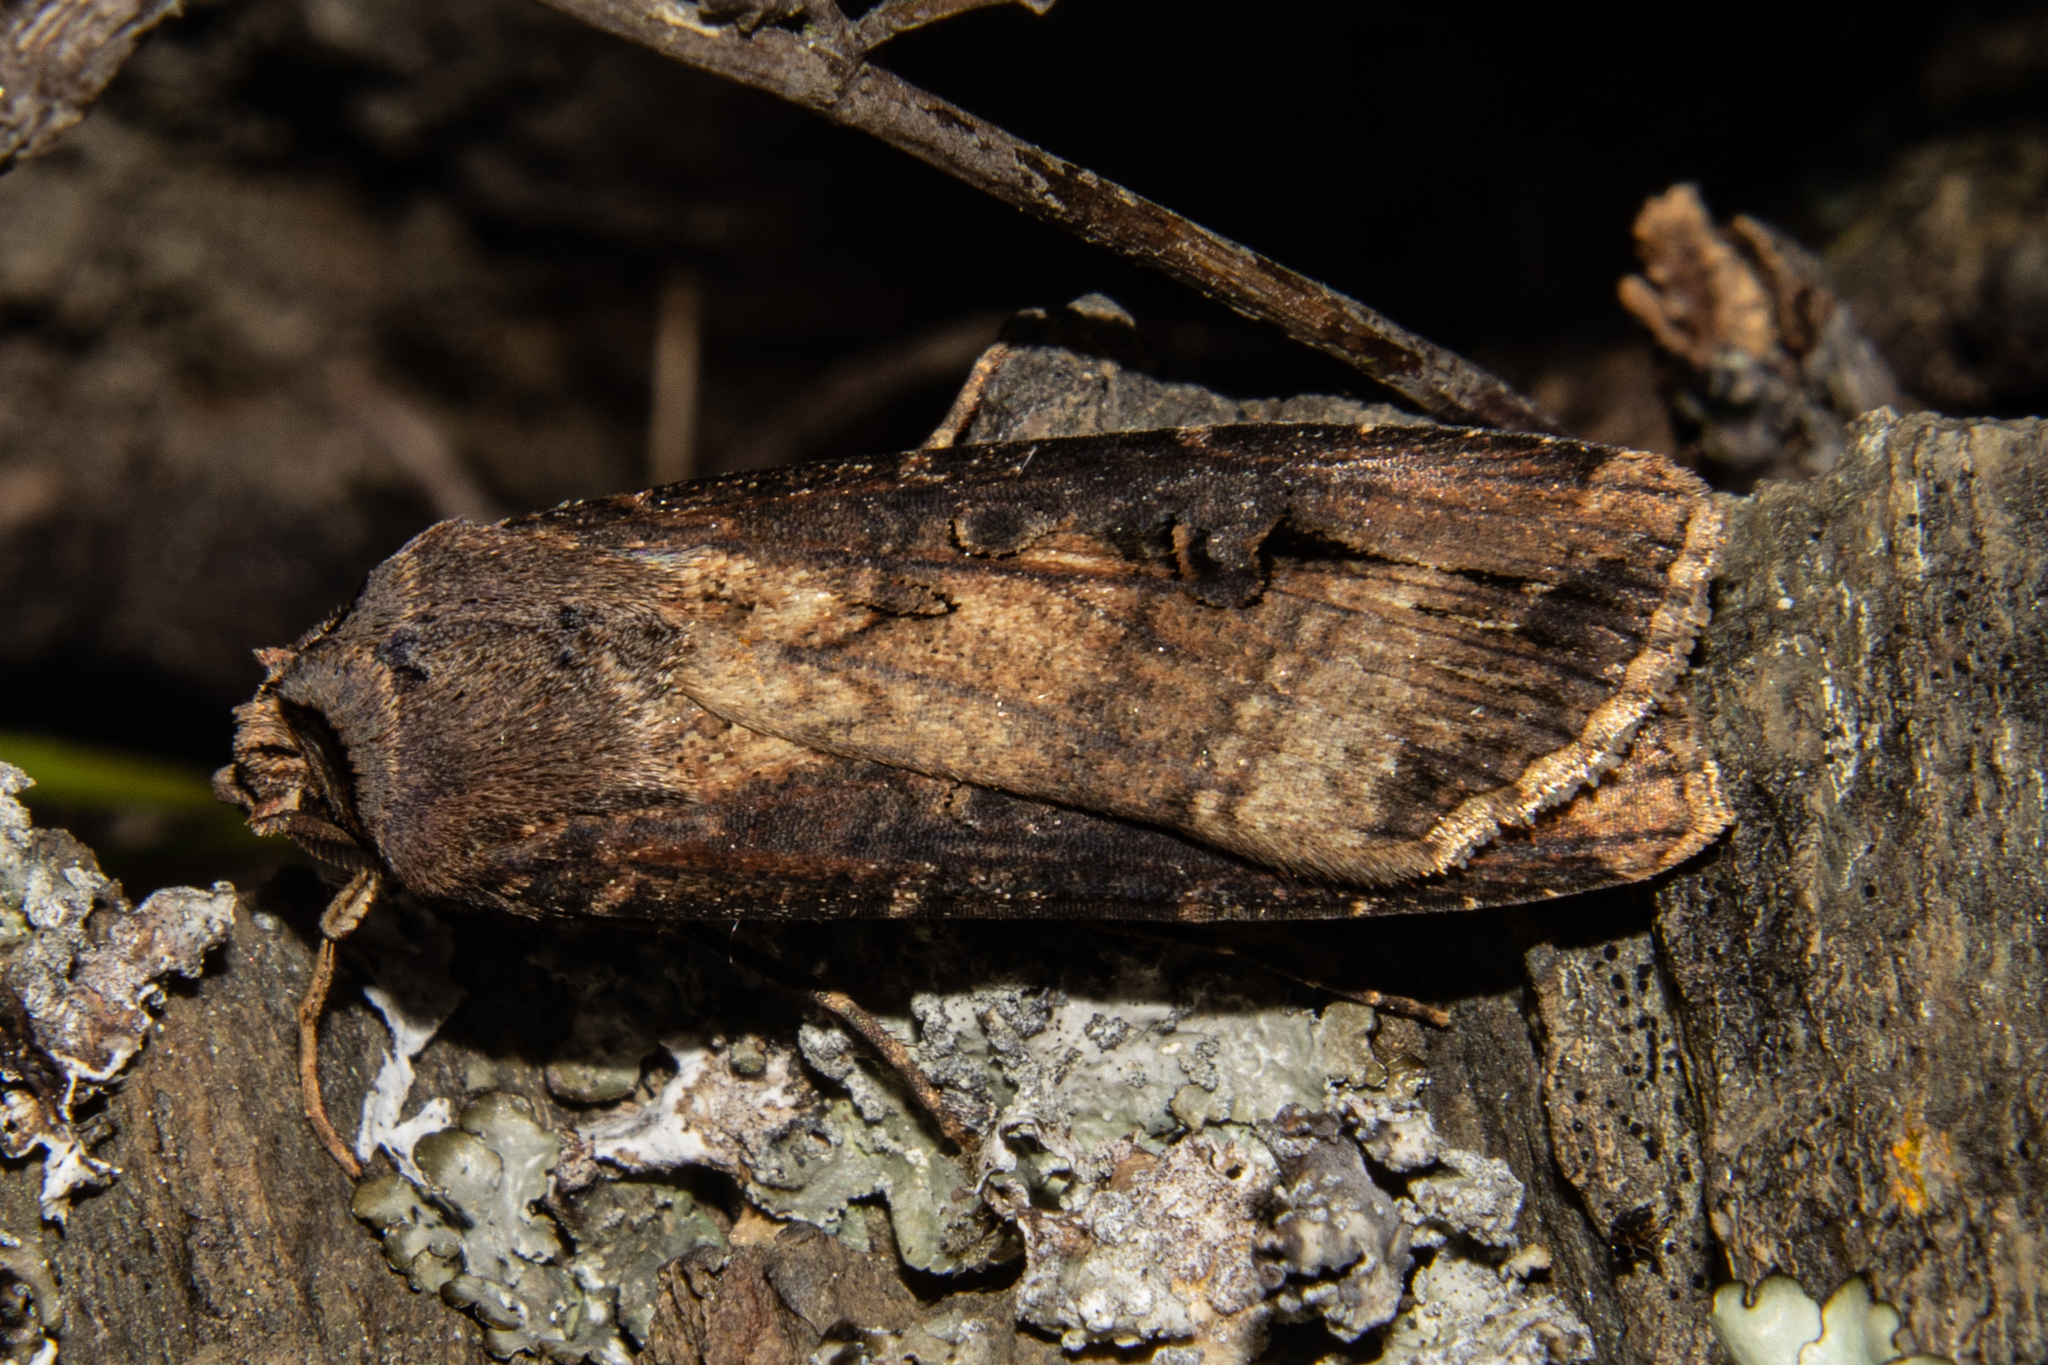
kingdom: Animalia
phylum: Arthropoda
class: Insecta
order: Lepidoptera
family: Noctuidae
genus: Agrotis
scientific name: Agrotis ipsilon
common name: Dark sword-grass
